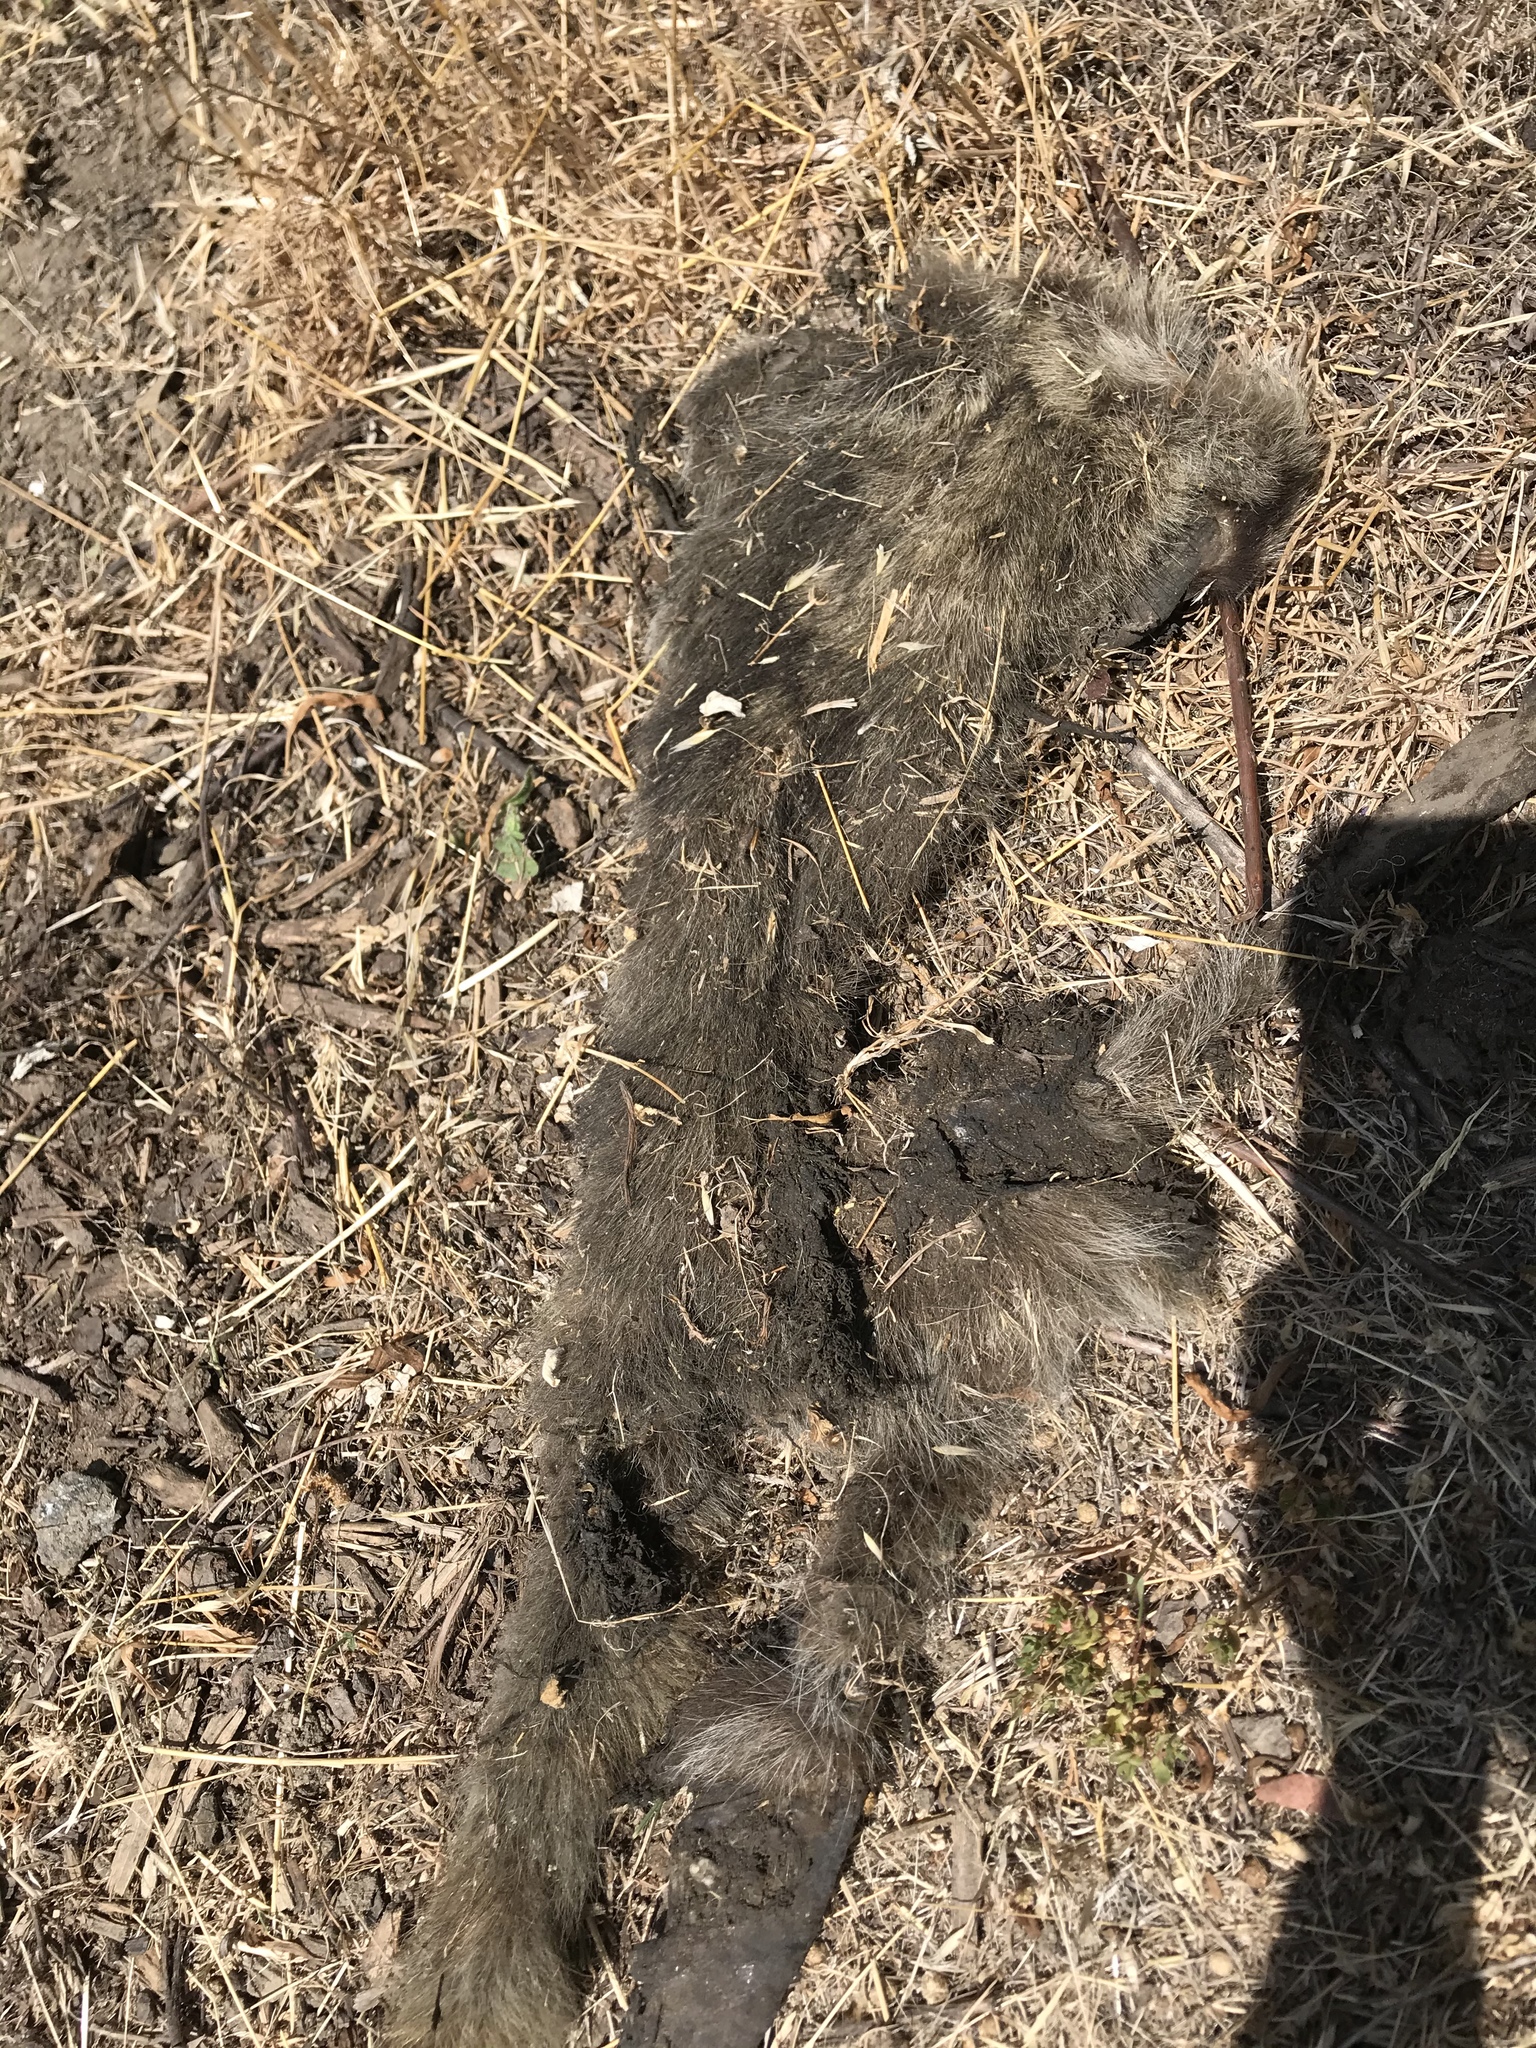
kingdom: Animalia
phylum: Chordata
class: Mammalia
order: Carnivora
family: Procyonidae
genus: Procyon
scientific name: Procyon lotor
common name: Raccoon
